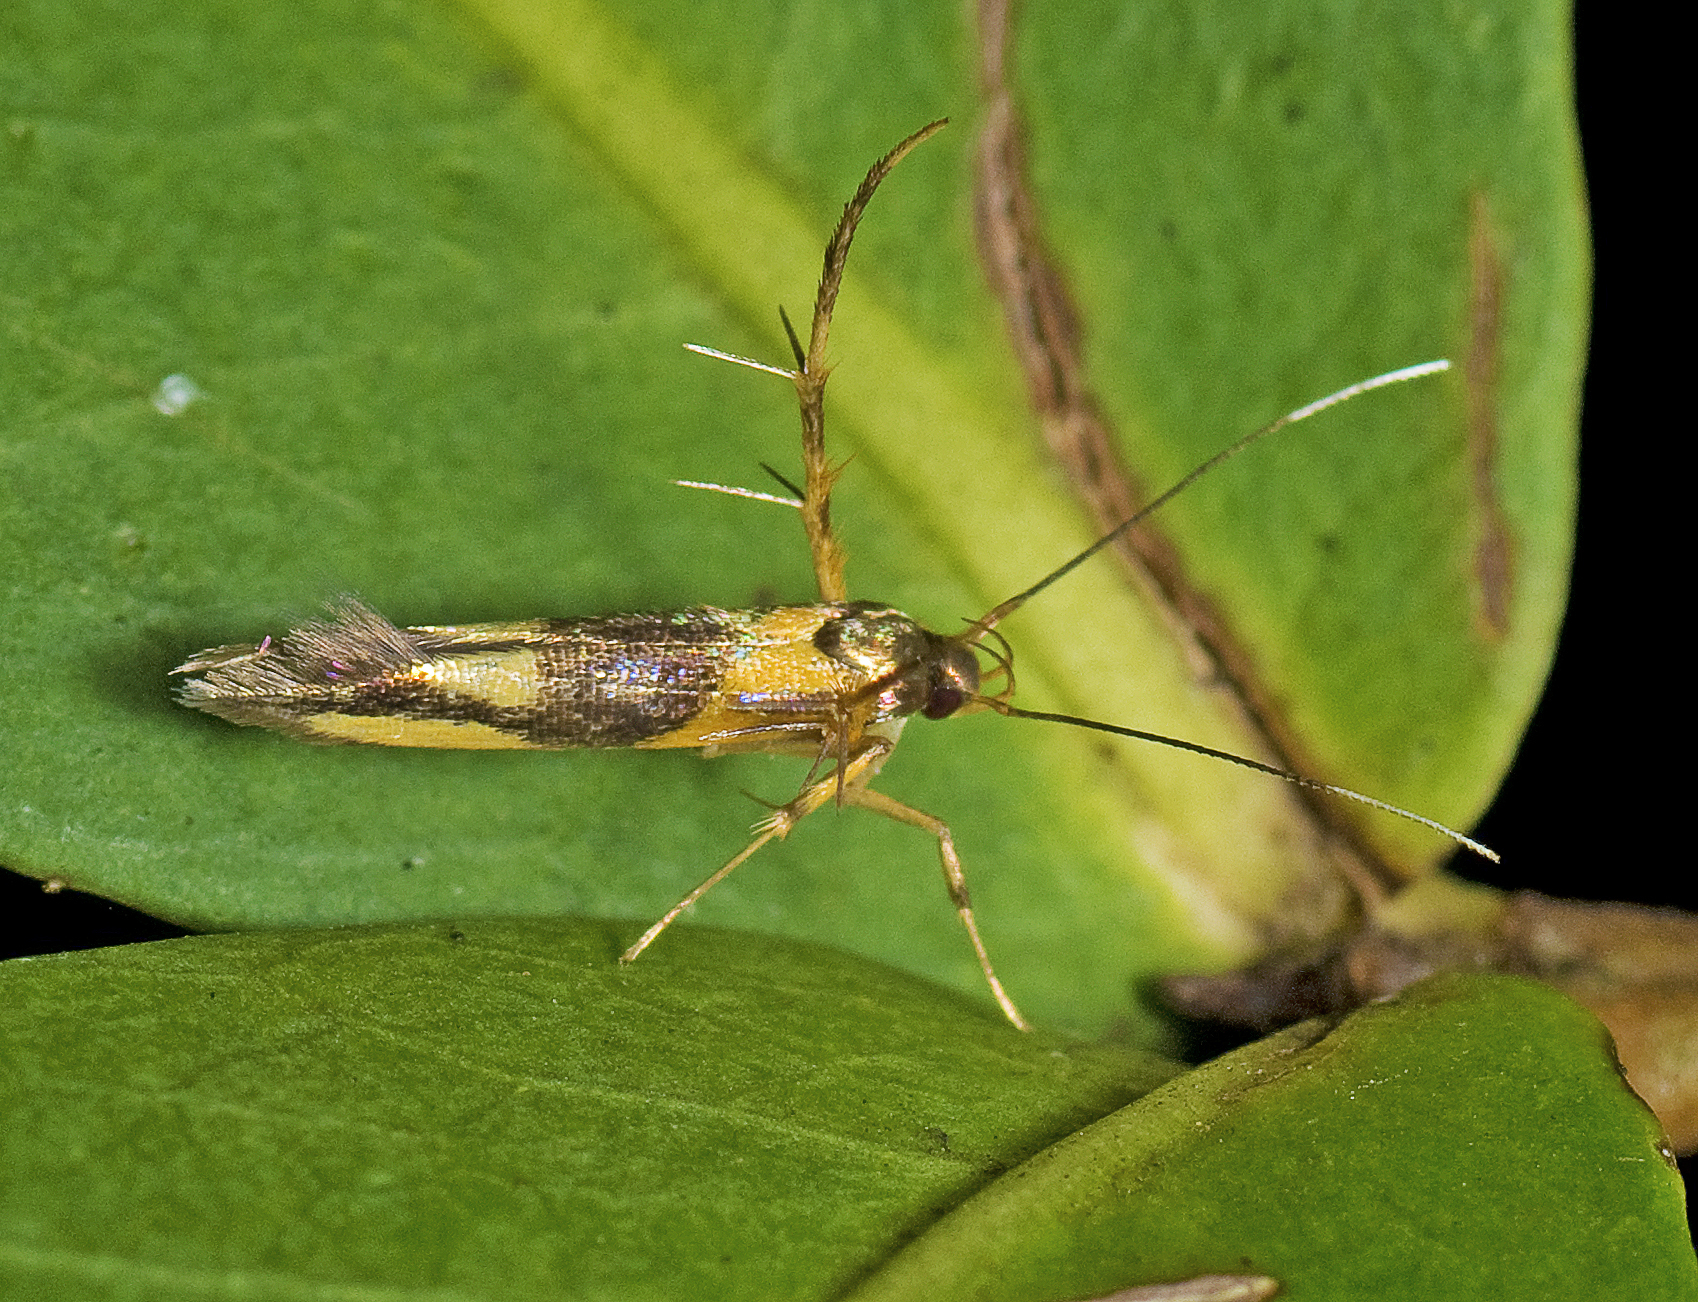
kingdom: Animalia
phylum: Arthropoda
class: Insecta
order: Lepidoptera
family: Cosmopterigidae
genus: Xestocasis
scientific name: Xestocasis balanochrysa
